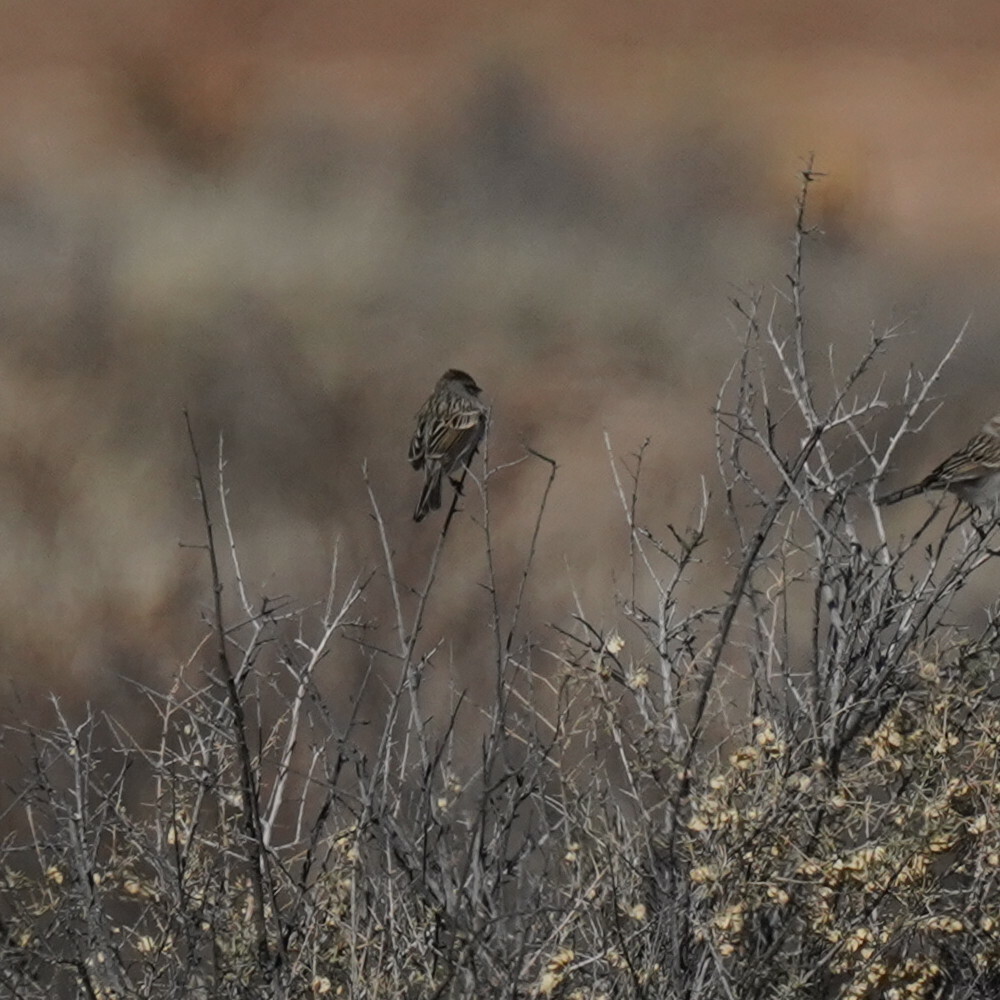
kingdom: Animalia
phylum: Chordata
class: Aves
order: Passeriformes
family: Passerellidae
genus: Spizella
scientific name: Spizella breweri
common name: Brewer's sparrow
